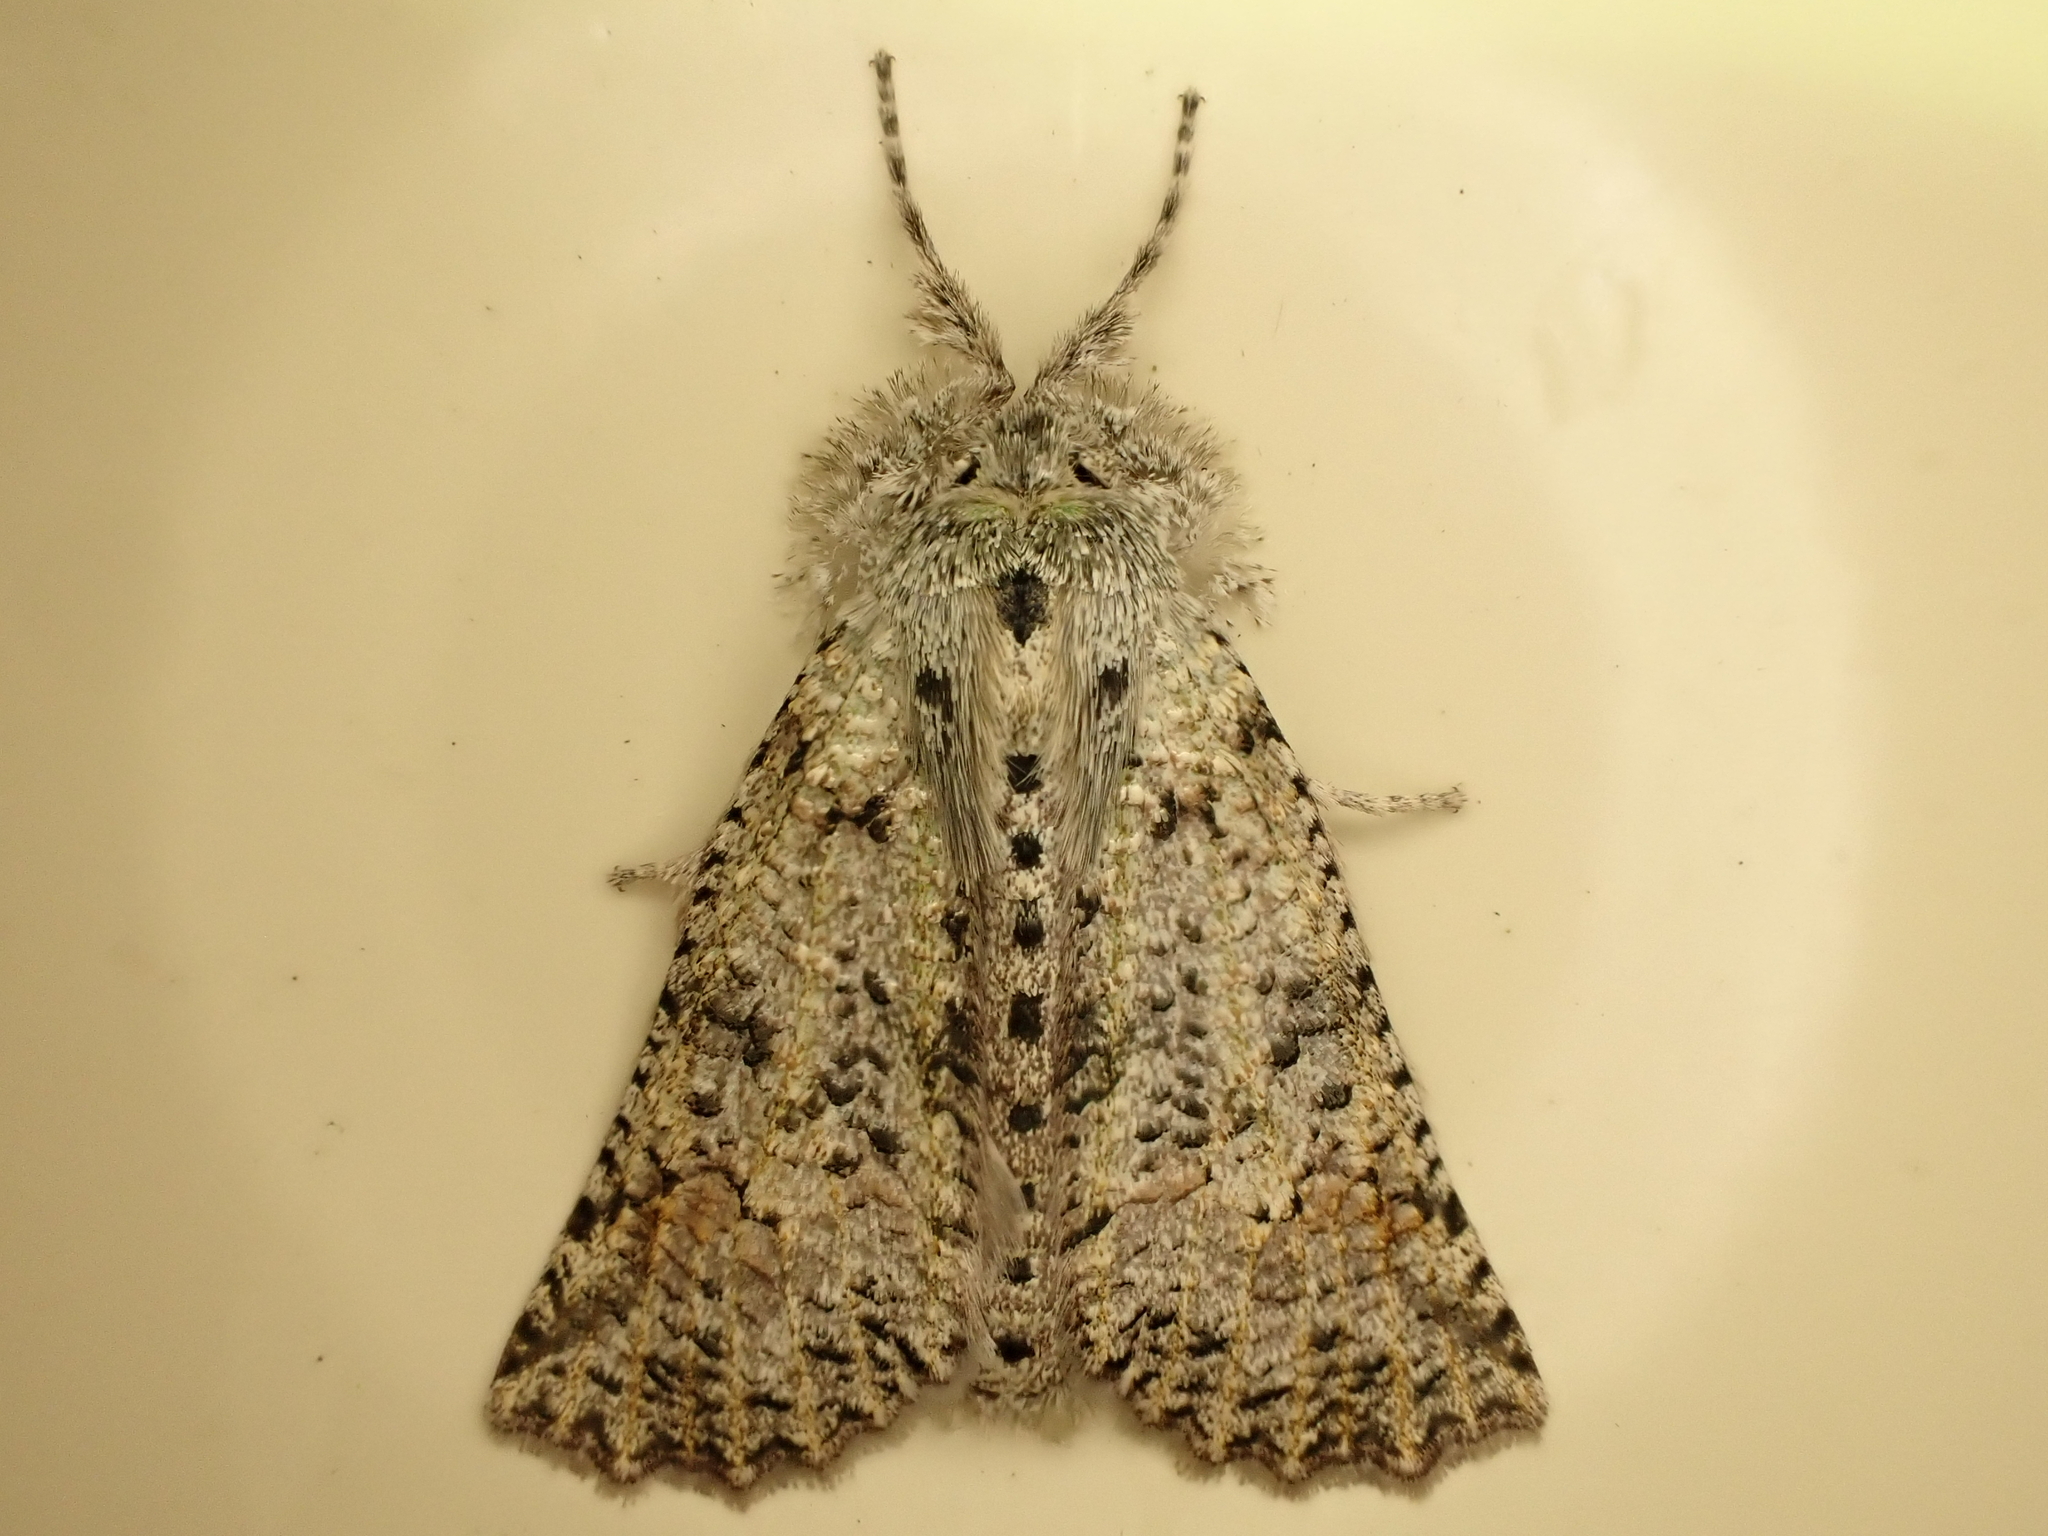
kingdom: Animalia
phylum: Arthropoda
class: Insecta
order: Lepidoptera
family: Geometridae
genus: Declana
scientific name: Declana floccosa
